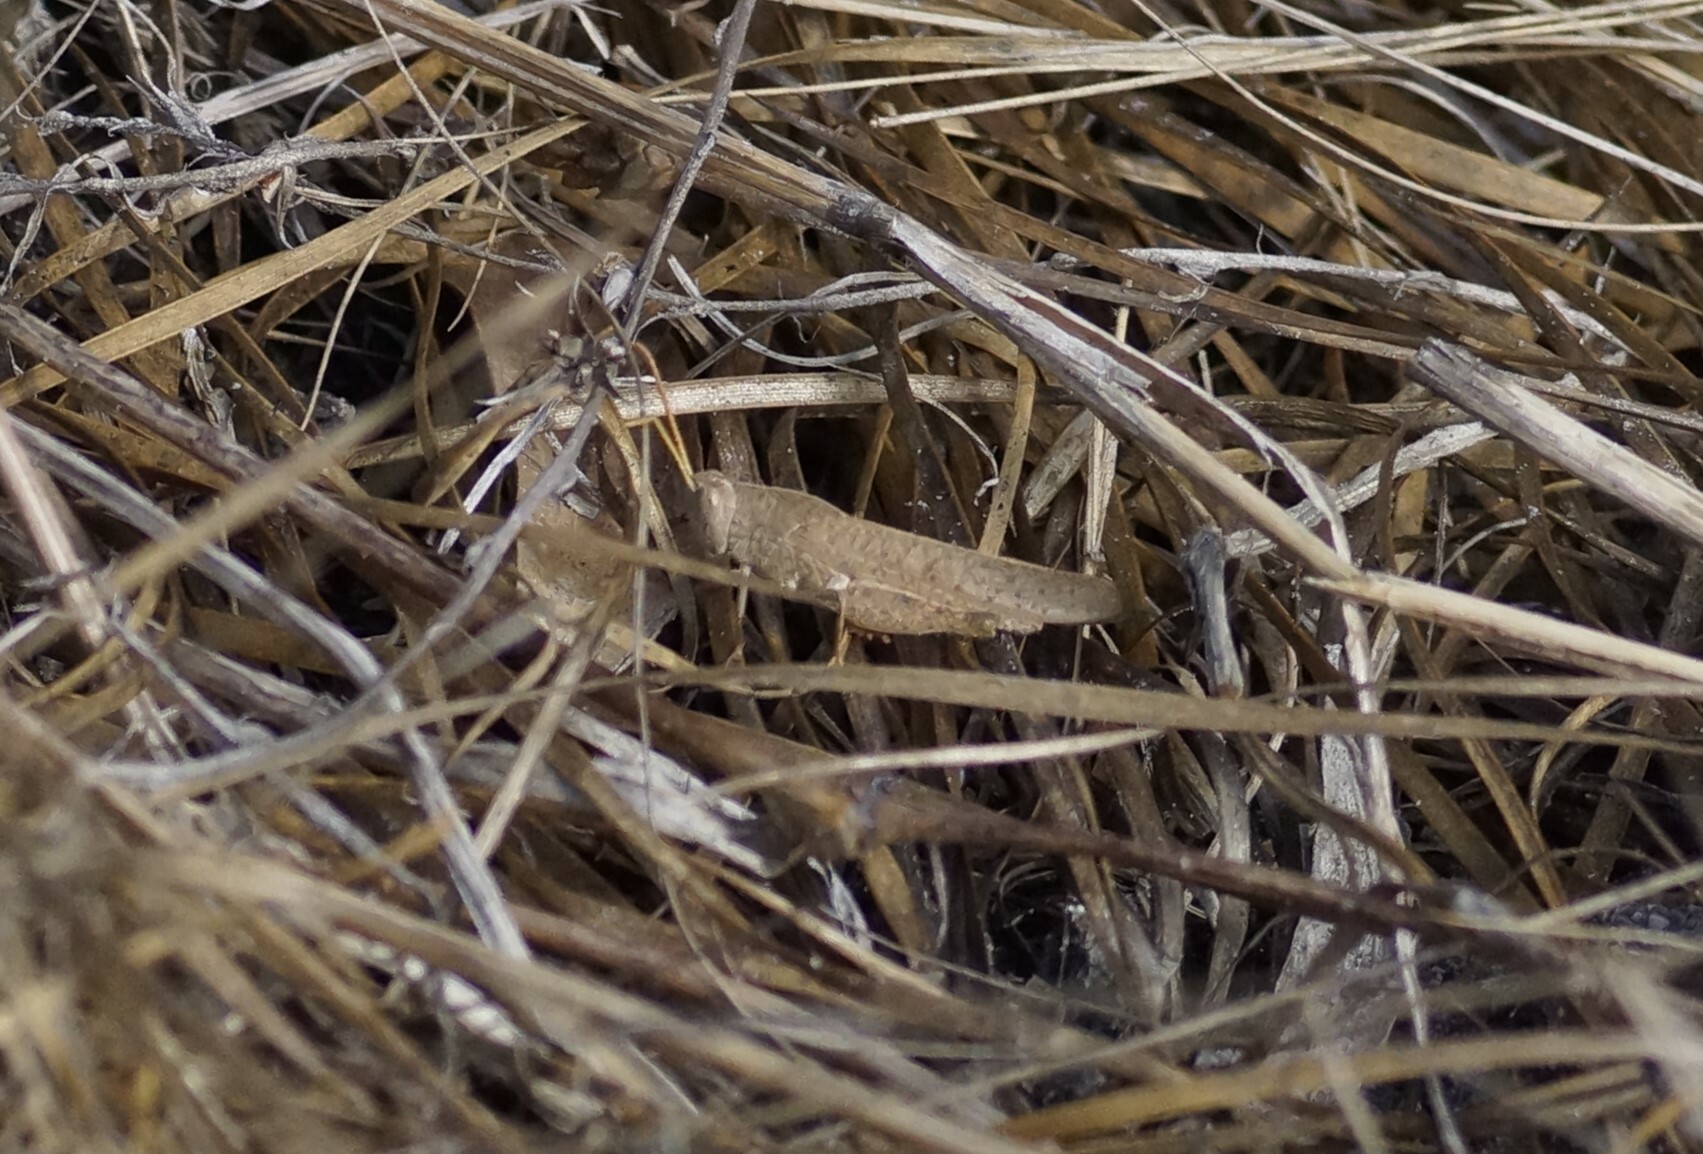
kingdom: Animalia
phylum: Arthropoda
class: Insecta
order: Orthoptera
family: Acrididae
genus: Goniaea
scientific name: Goniaea vocans
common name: Slender gumleaf grasshopper
